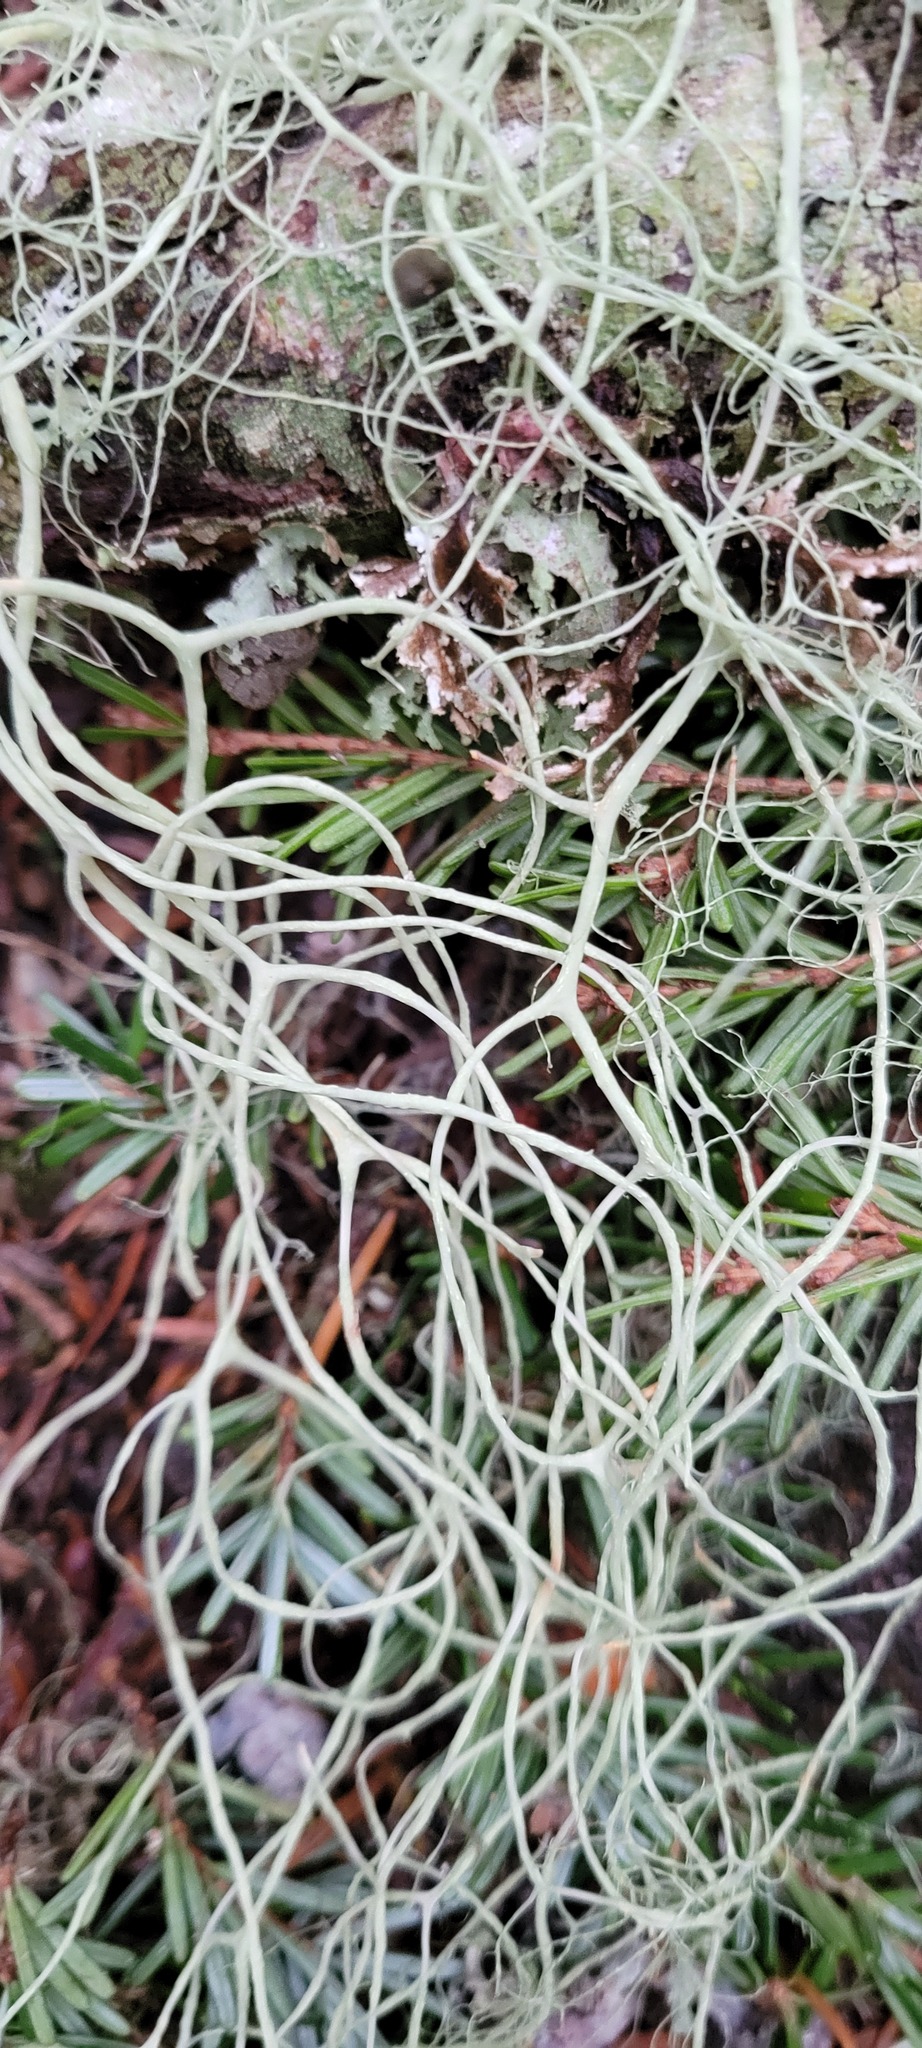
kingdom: Fungi
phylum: Ascomycota
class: Lecanoromycetes
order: Lecanorales
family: Parmeliaceae
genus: Alectoria
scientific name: Alectoria sarmentosa
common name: Witch's hair
